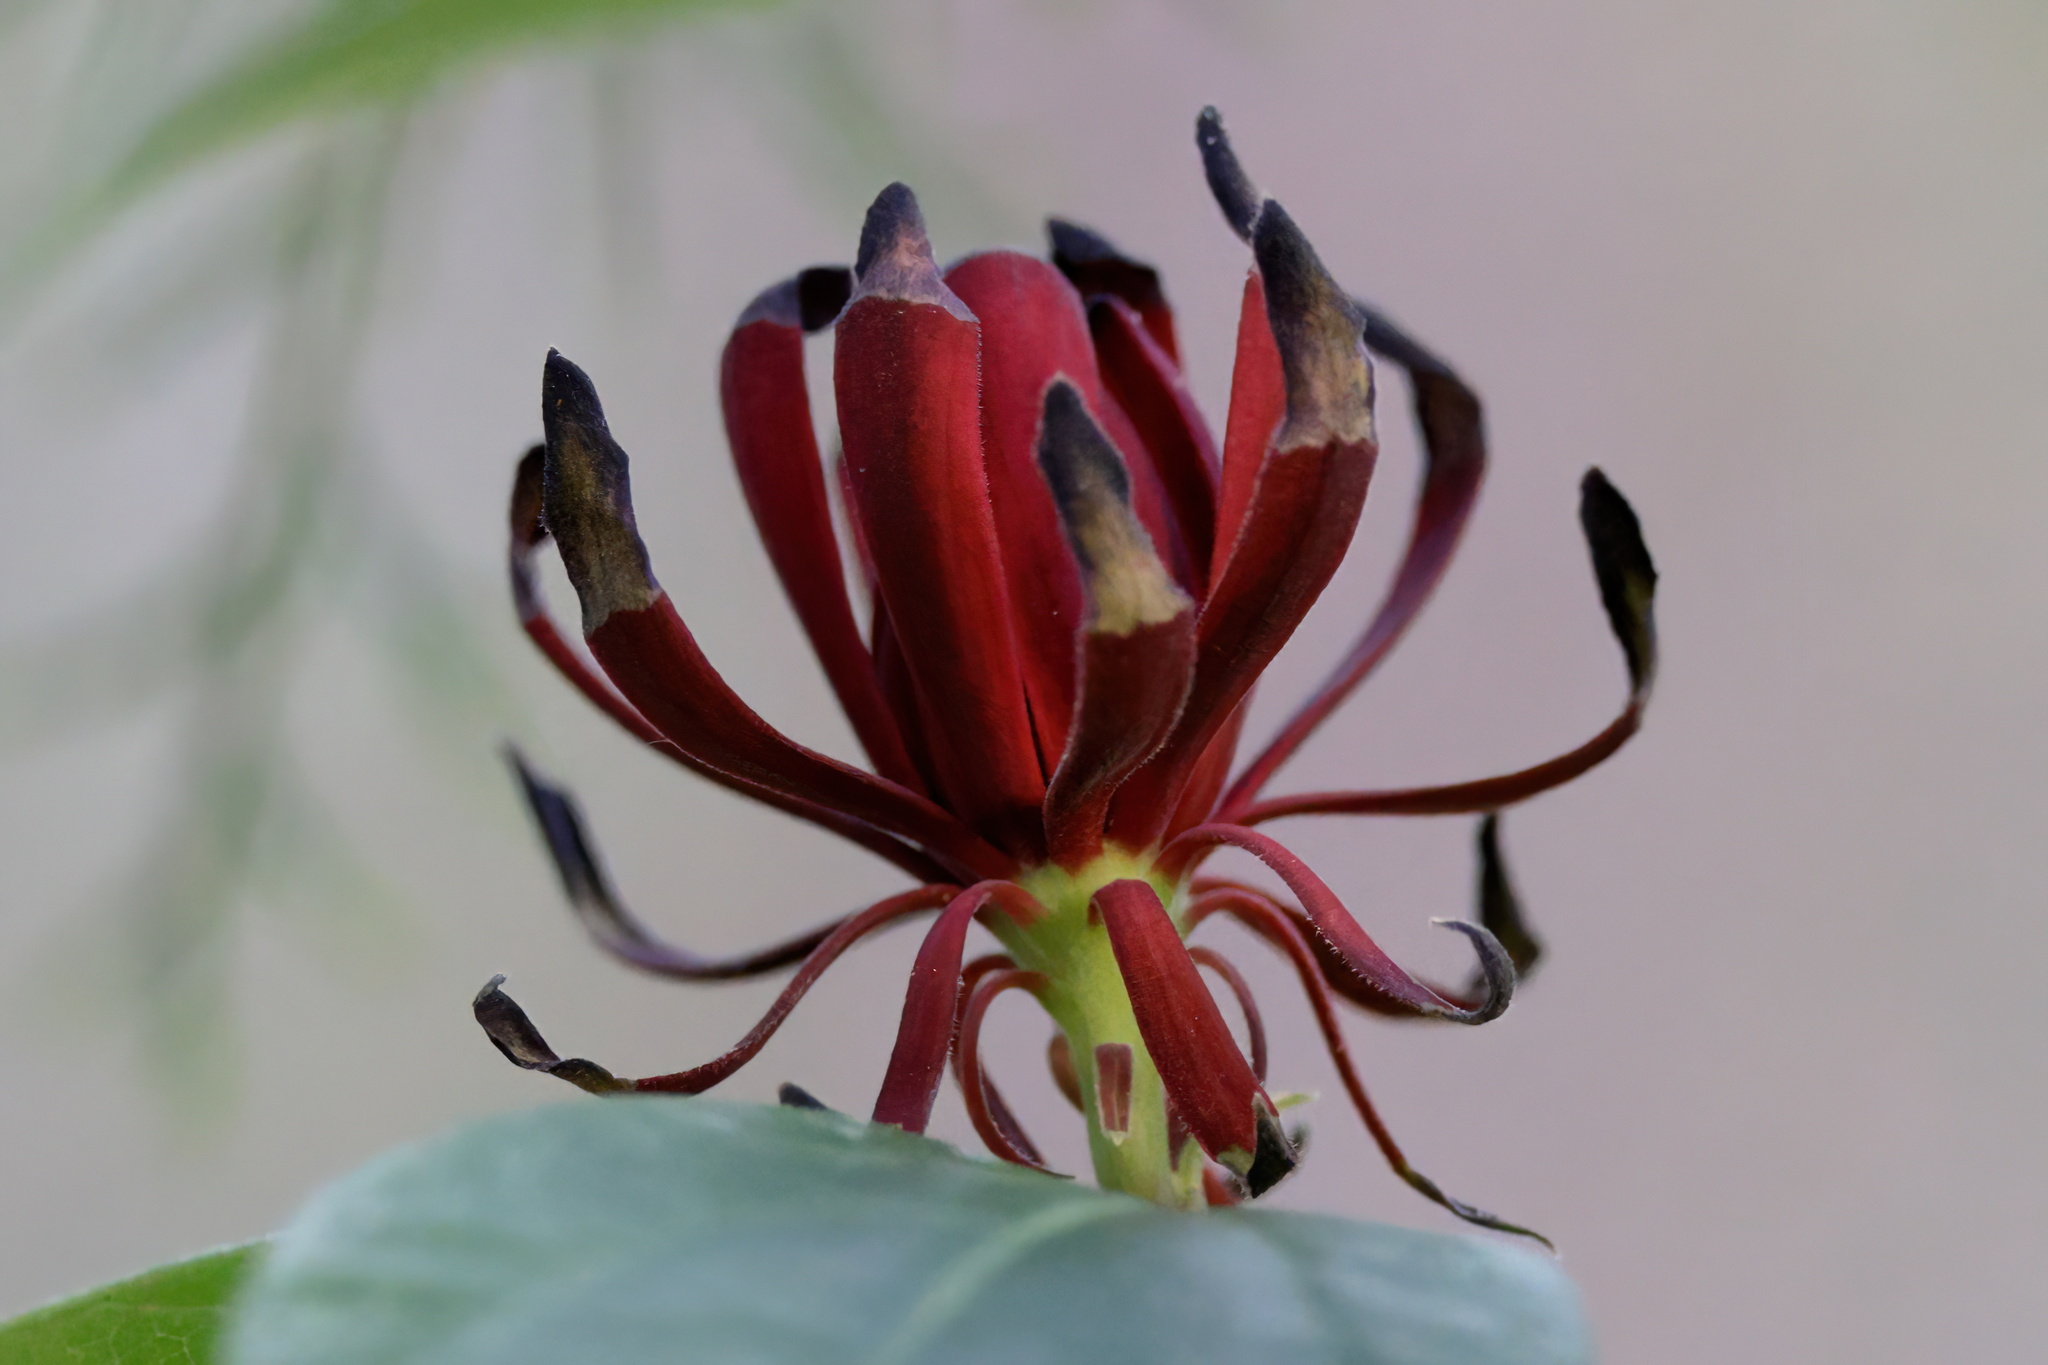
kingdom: Plantae
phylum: Tracheophyta
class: Magnoliopsida
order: Laurales
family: Calycanthaceae
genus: Calycanthus
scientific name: Calycanthus floridus
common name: Carolina-allspice
